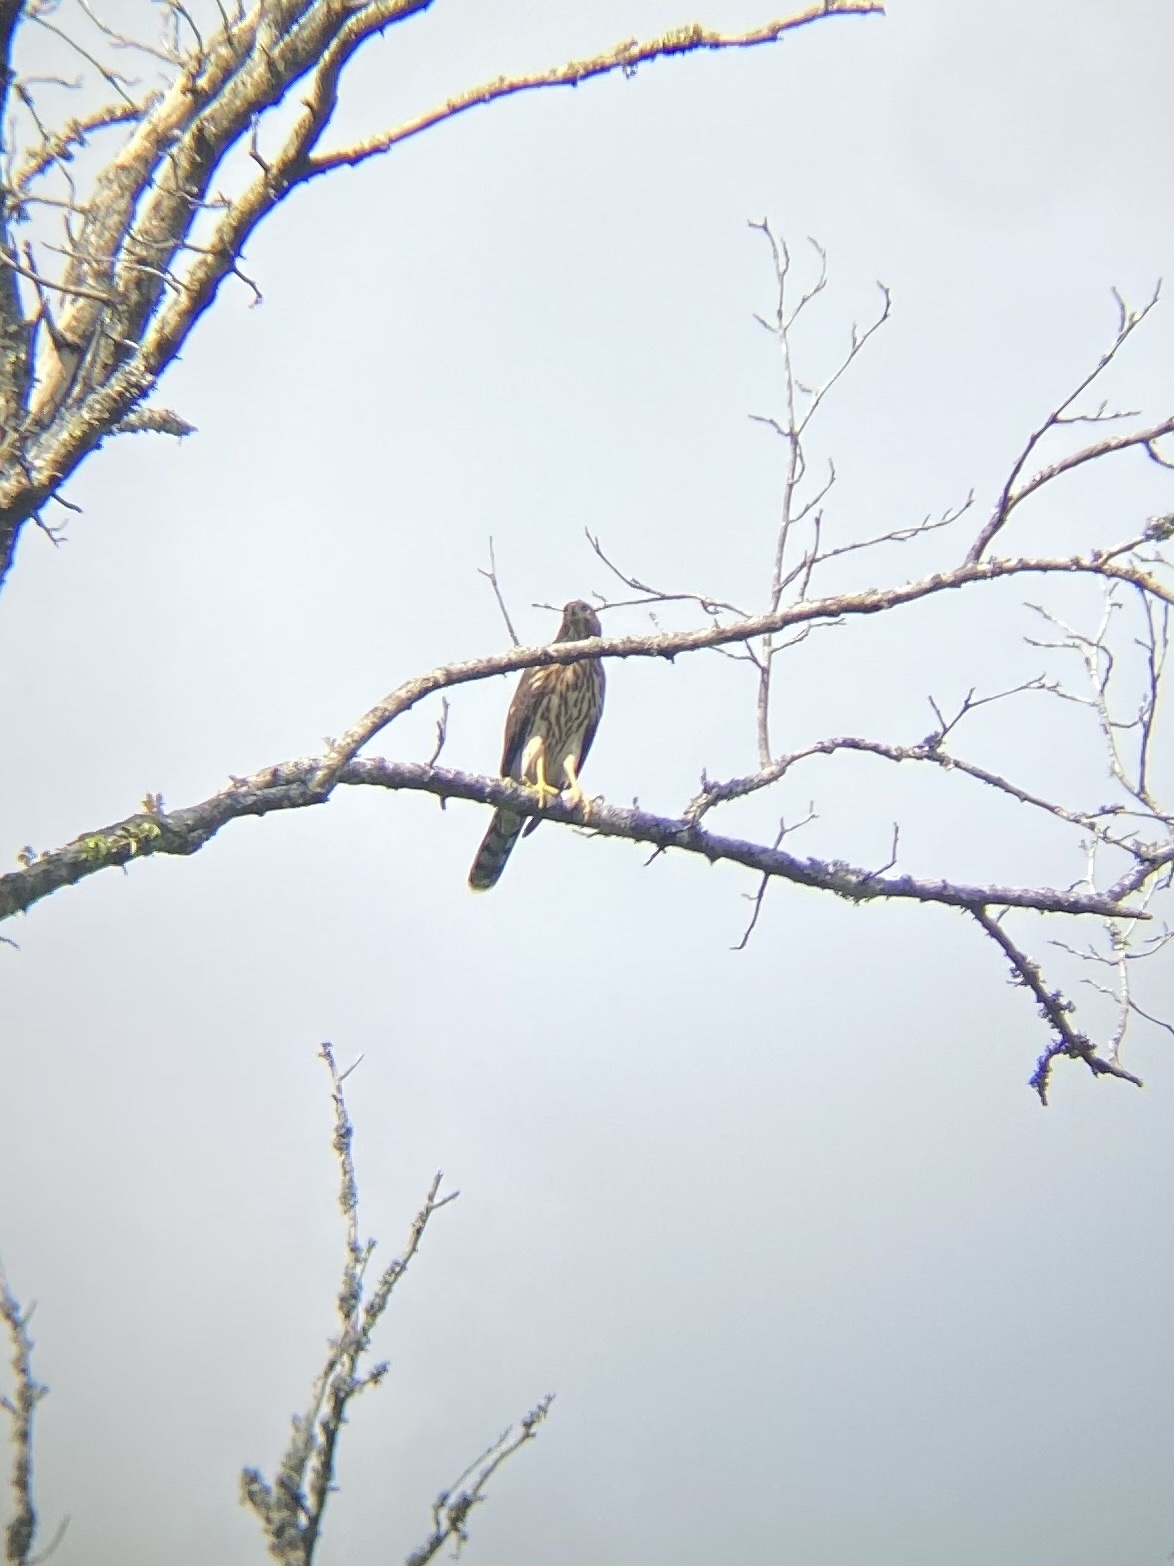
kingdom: Animalia
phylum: Chordata
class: Aves
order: Accipitriformes
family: Accipitridae
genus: Accipiter
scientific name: Accipiter cooperii
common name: Cooper's hawk
